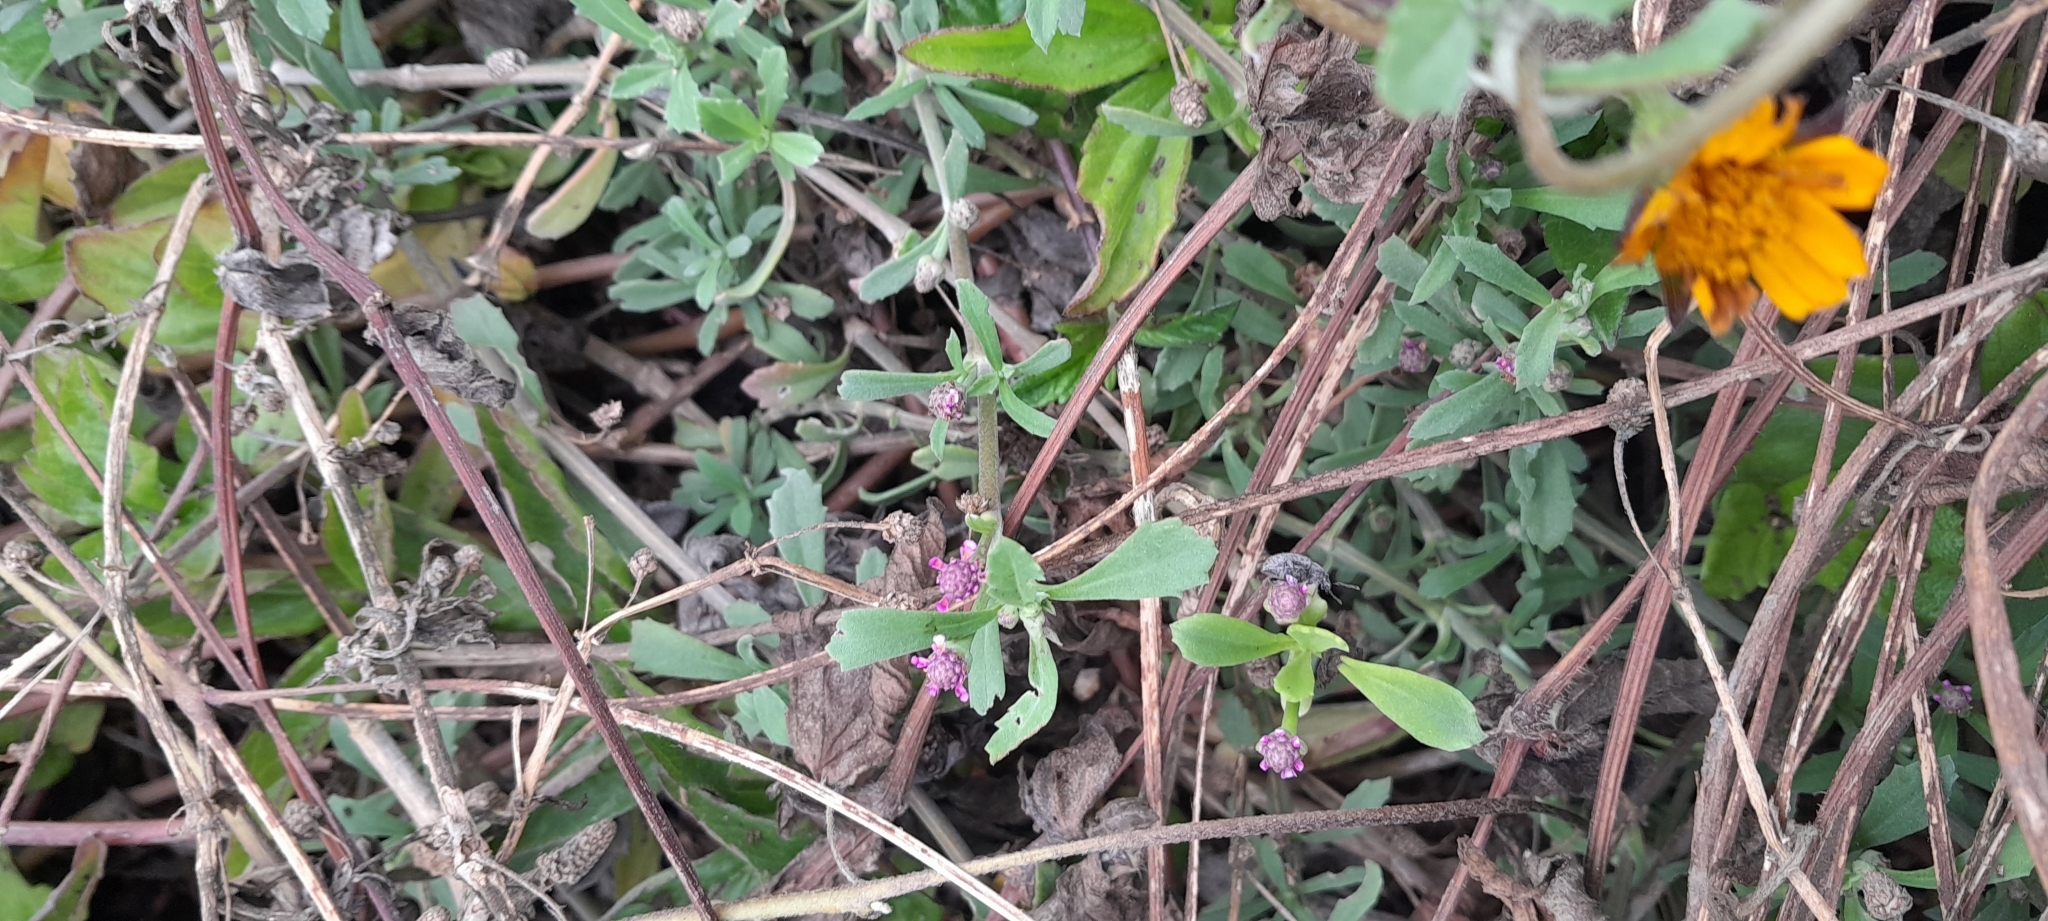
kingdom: Plantae
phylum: Tracheophyta
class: Magnoliopsida
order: Lamiales
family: Verbenaceae
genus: Phyla
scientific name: Phyla nodiflora
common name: Frogfruit
